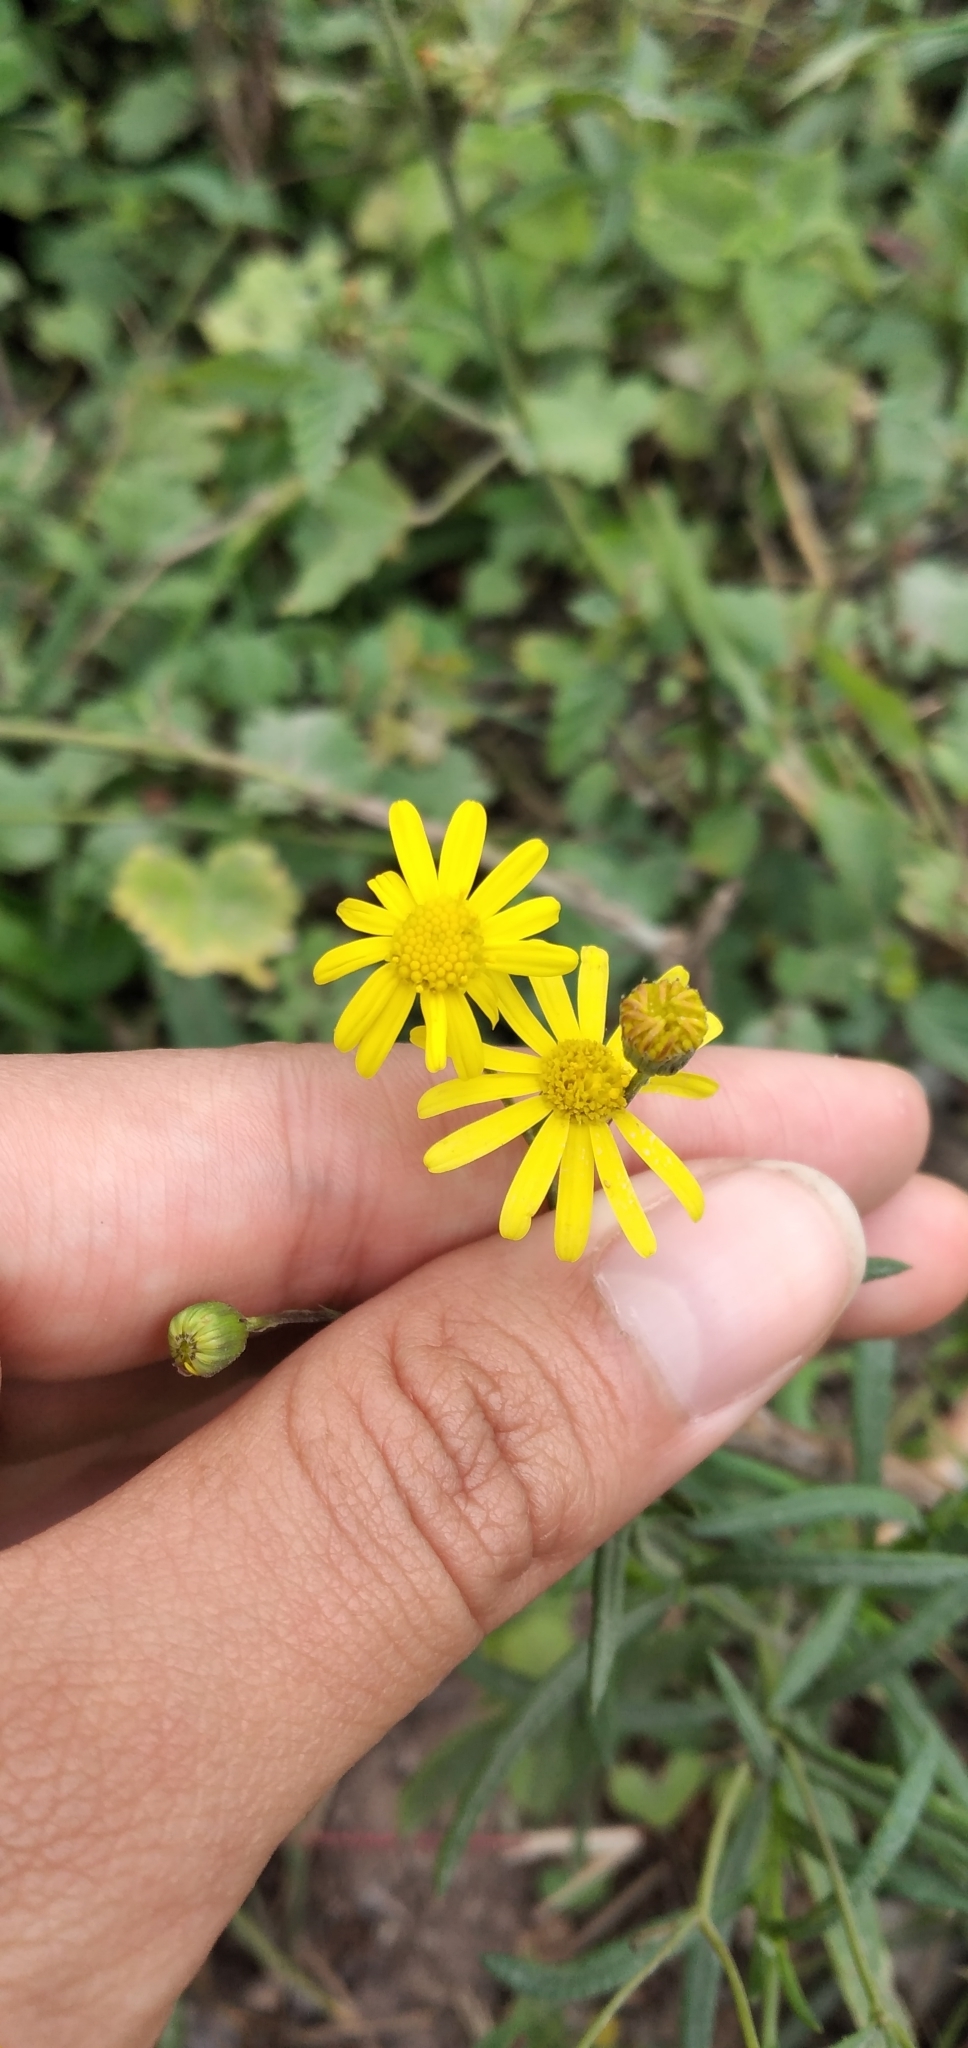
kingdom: Plantae
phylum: Tracheophyta
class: Magnoliopsida
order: Asterales
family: Asteraceae
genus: Senecio
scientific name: Senecio madagascariensis
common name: Madagascar ragwort
